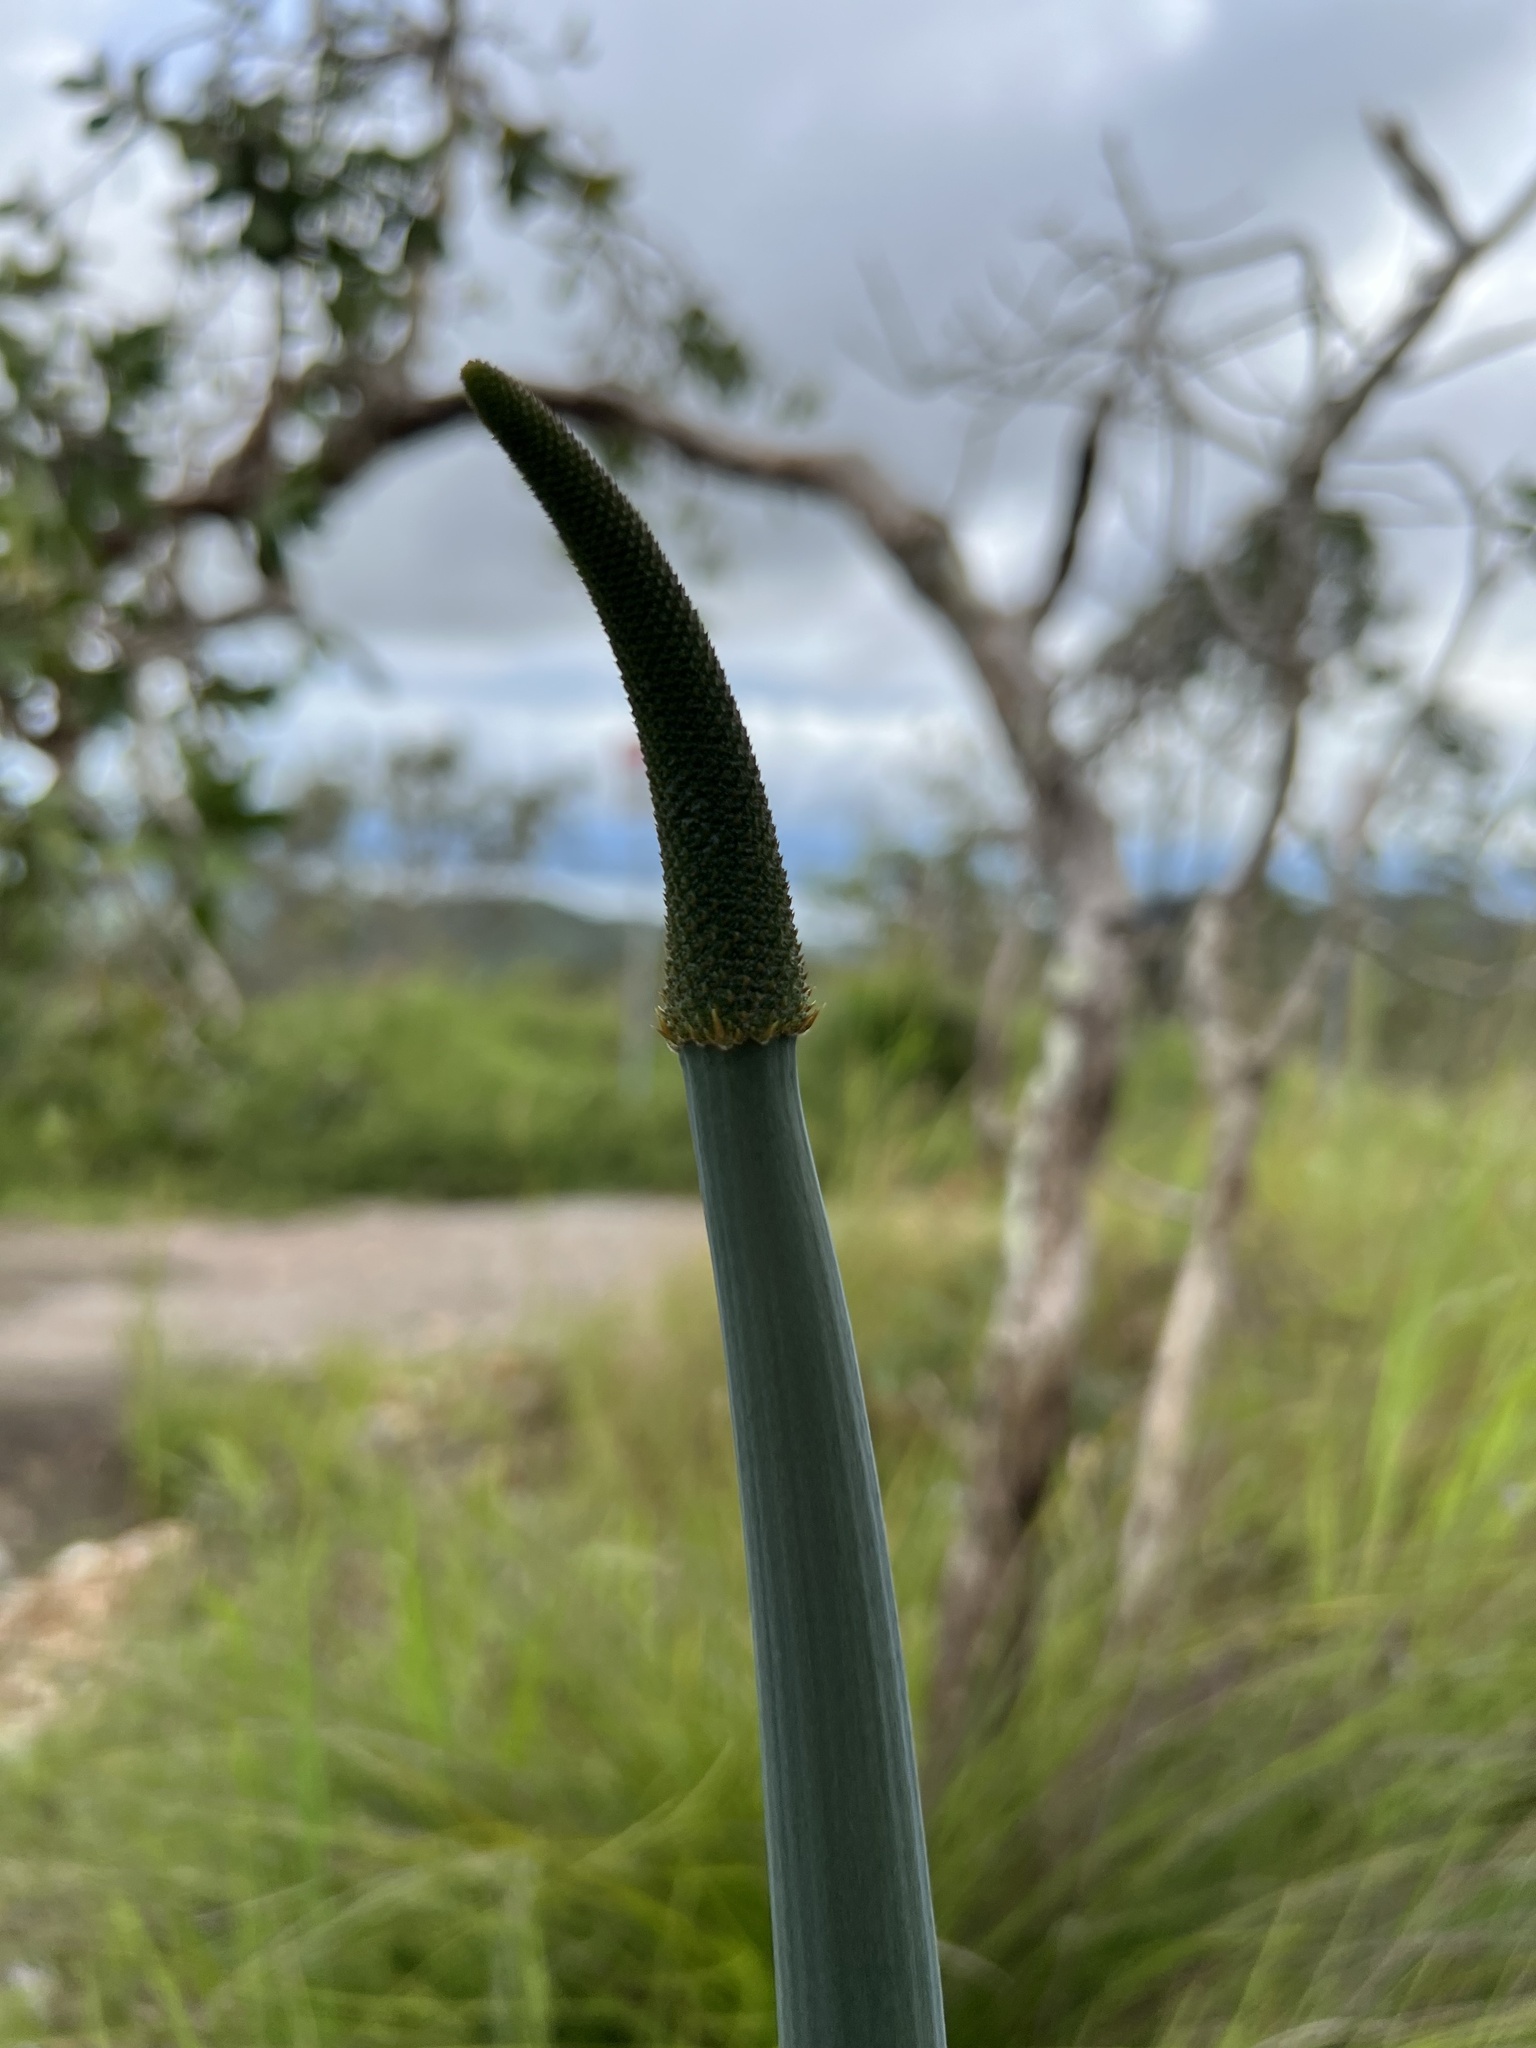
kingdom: Plantae
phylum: Tracheophyta
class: Liliopsida
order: Asparagales
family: Asphodelaceae
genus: Xanthorrhoea
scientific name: Xanthorrhoea johnsonii
